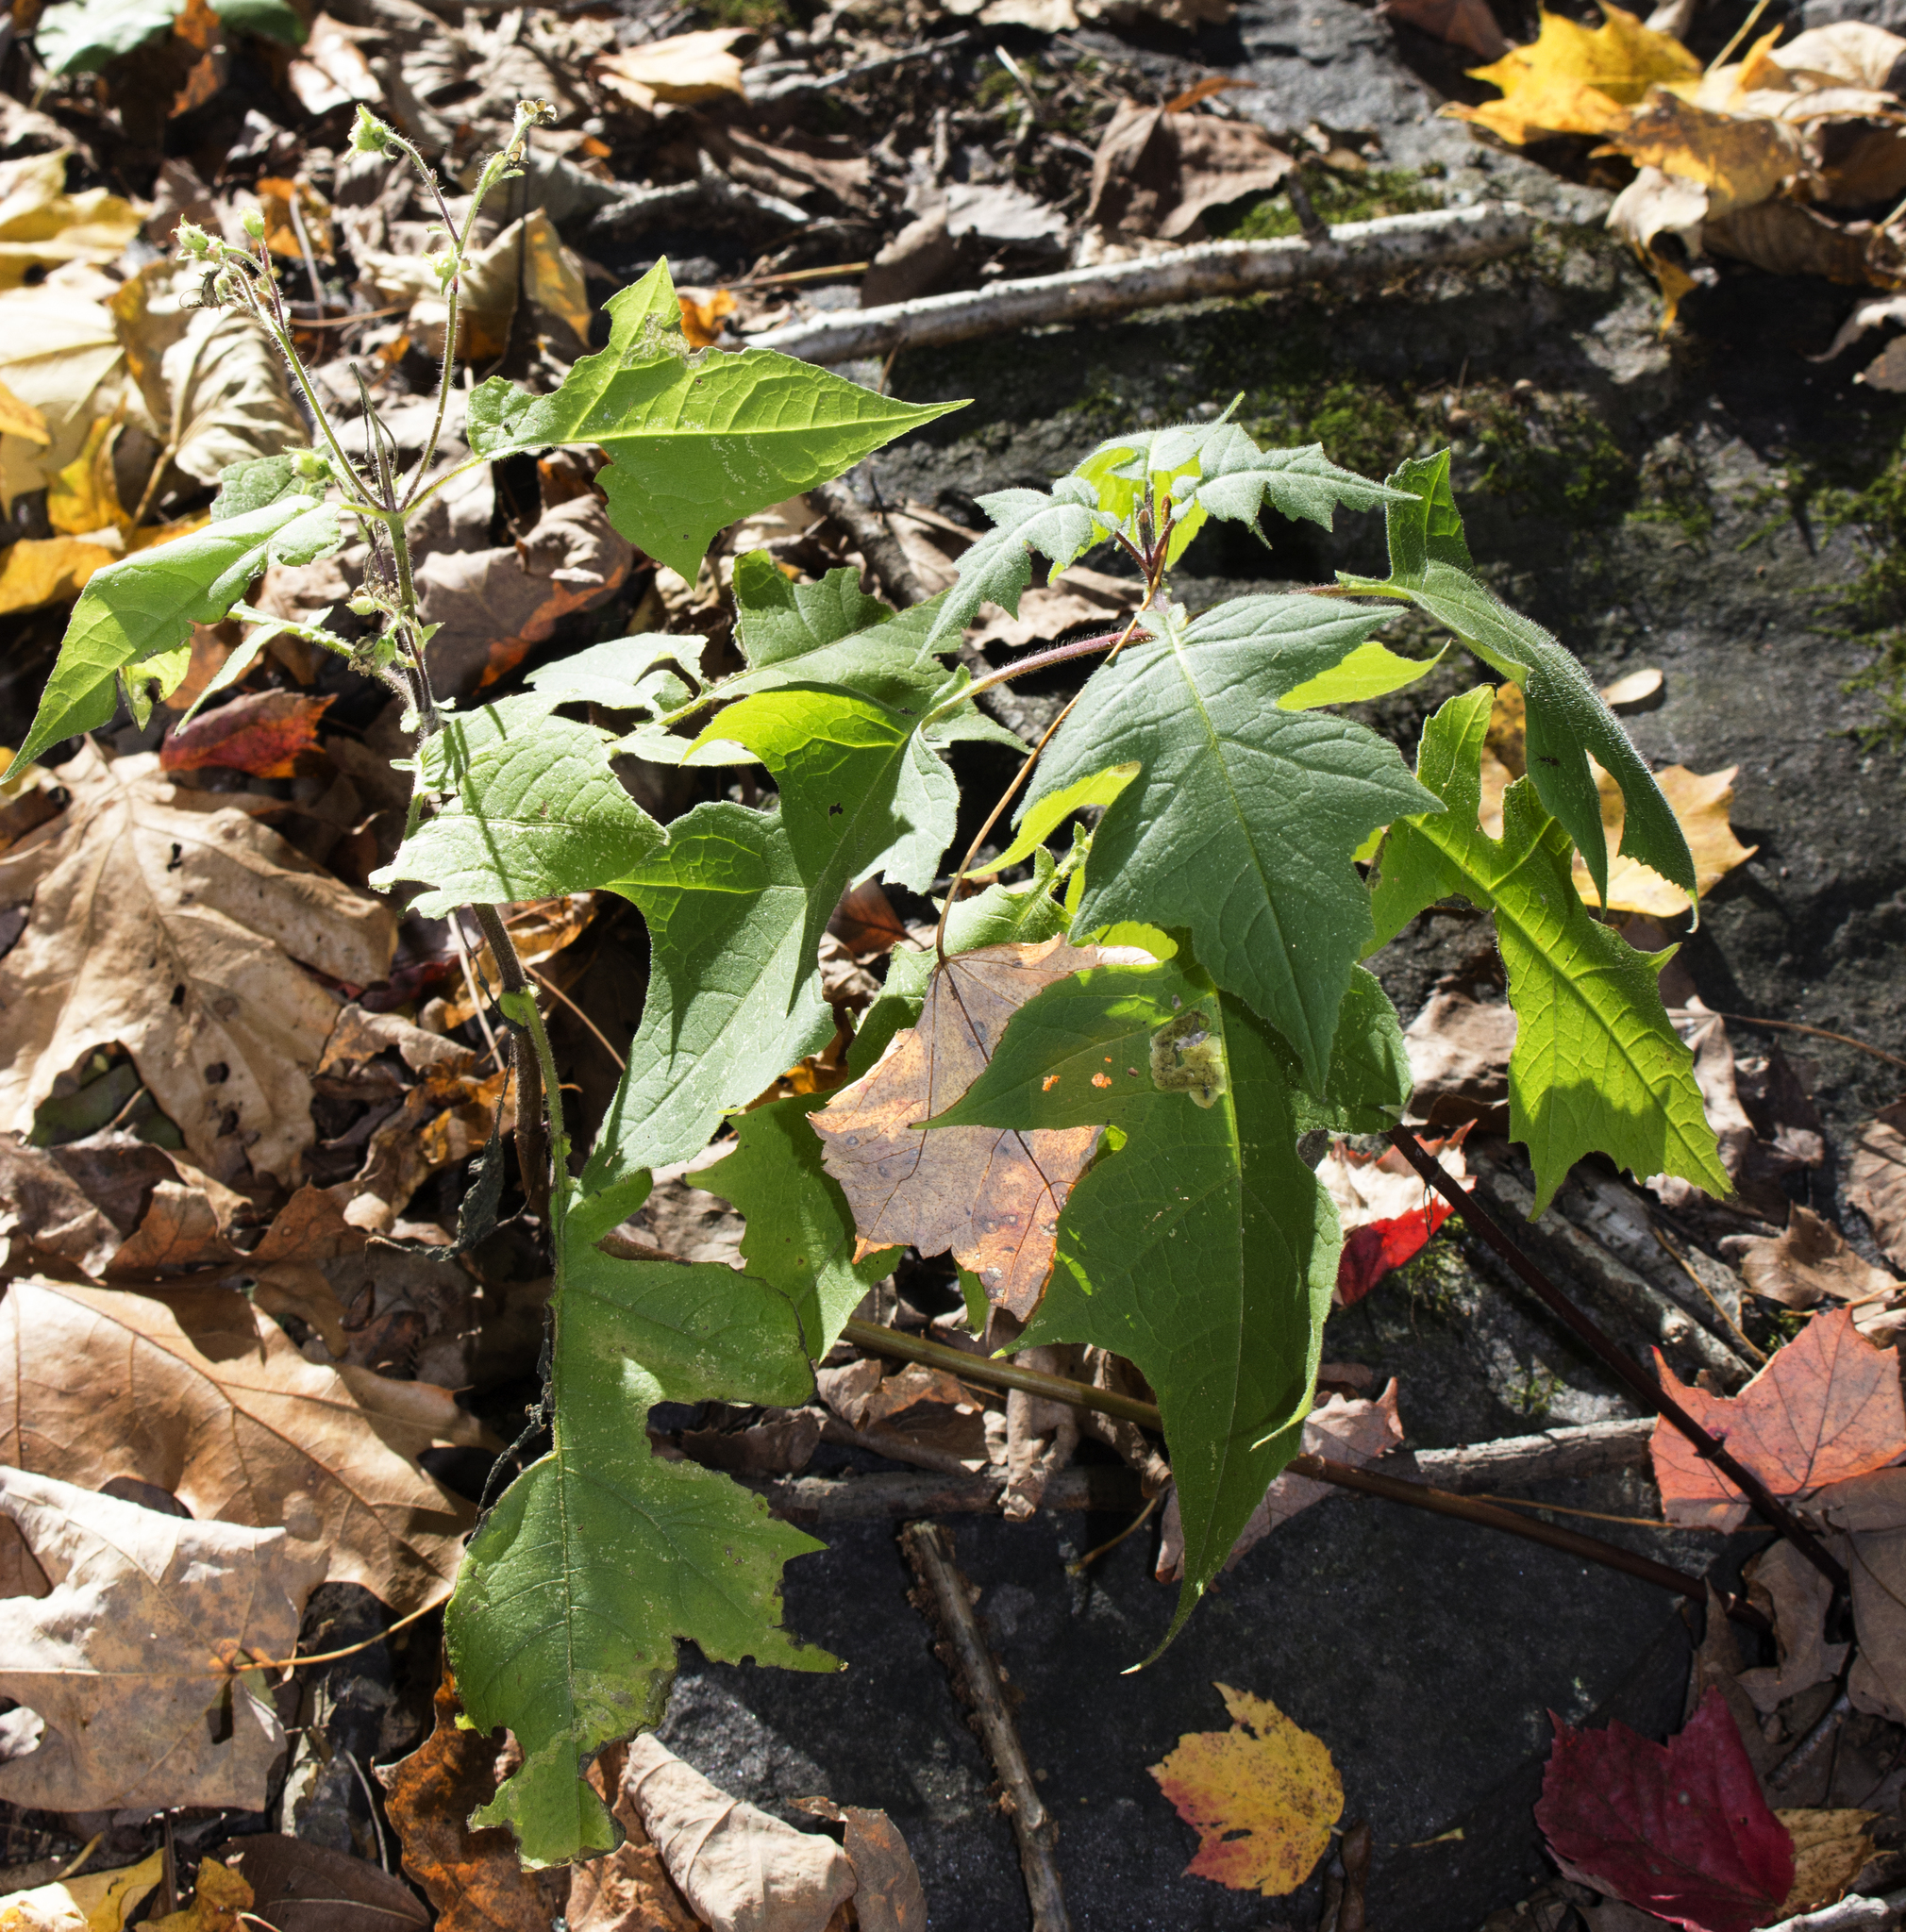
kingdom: Plantae
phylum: Tracheophyta
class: Magnoliopsida
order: Asterales
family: Asteraceae
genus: Polymnia
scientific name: Polymnia canadensis
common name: Pale-flowered leafcup
